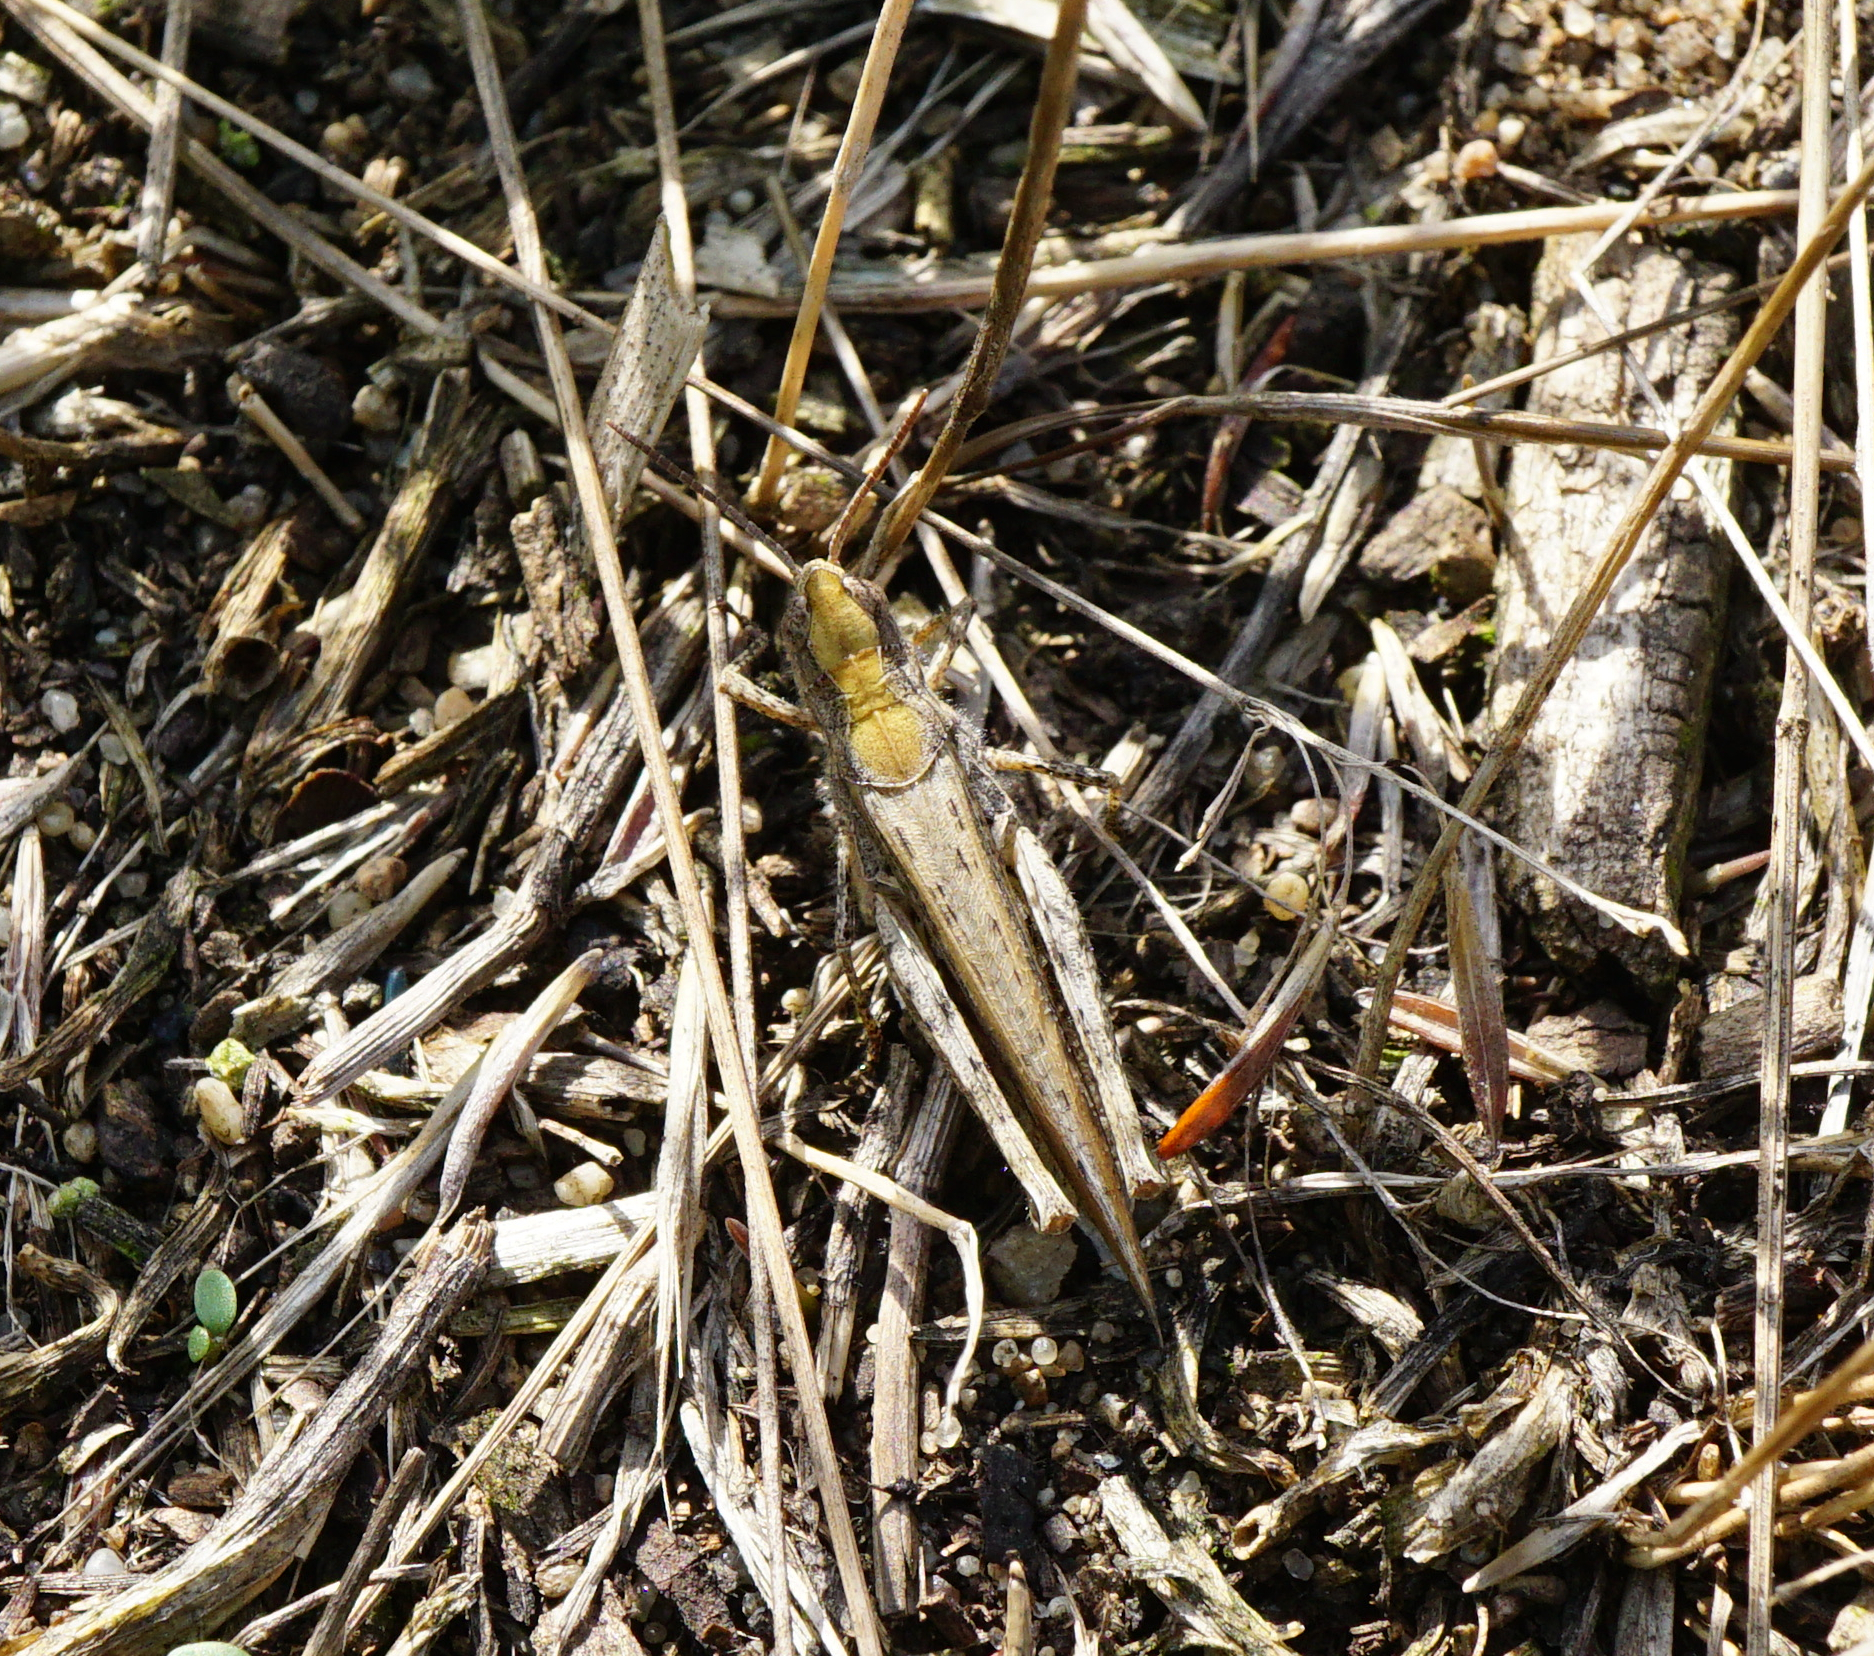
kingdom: Animalia
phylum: Arthropoda
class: Insecta
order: Orthoptera
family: Acrididae
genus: Glyptobothrus
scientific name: Glyptobothrus
